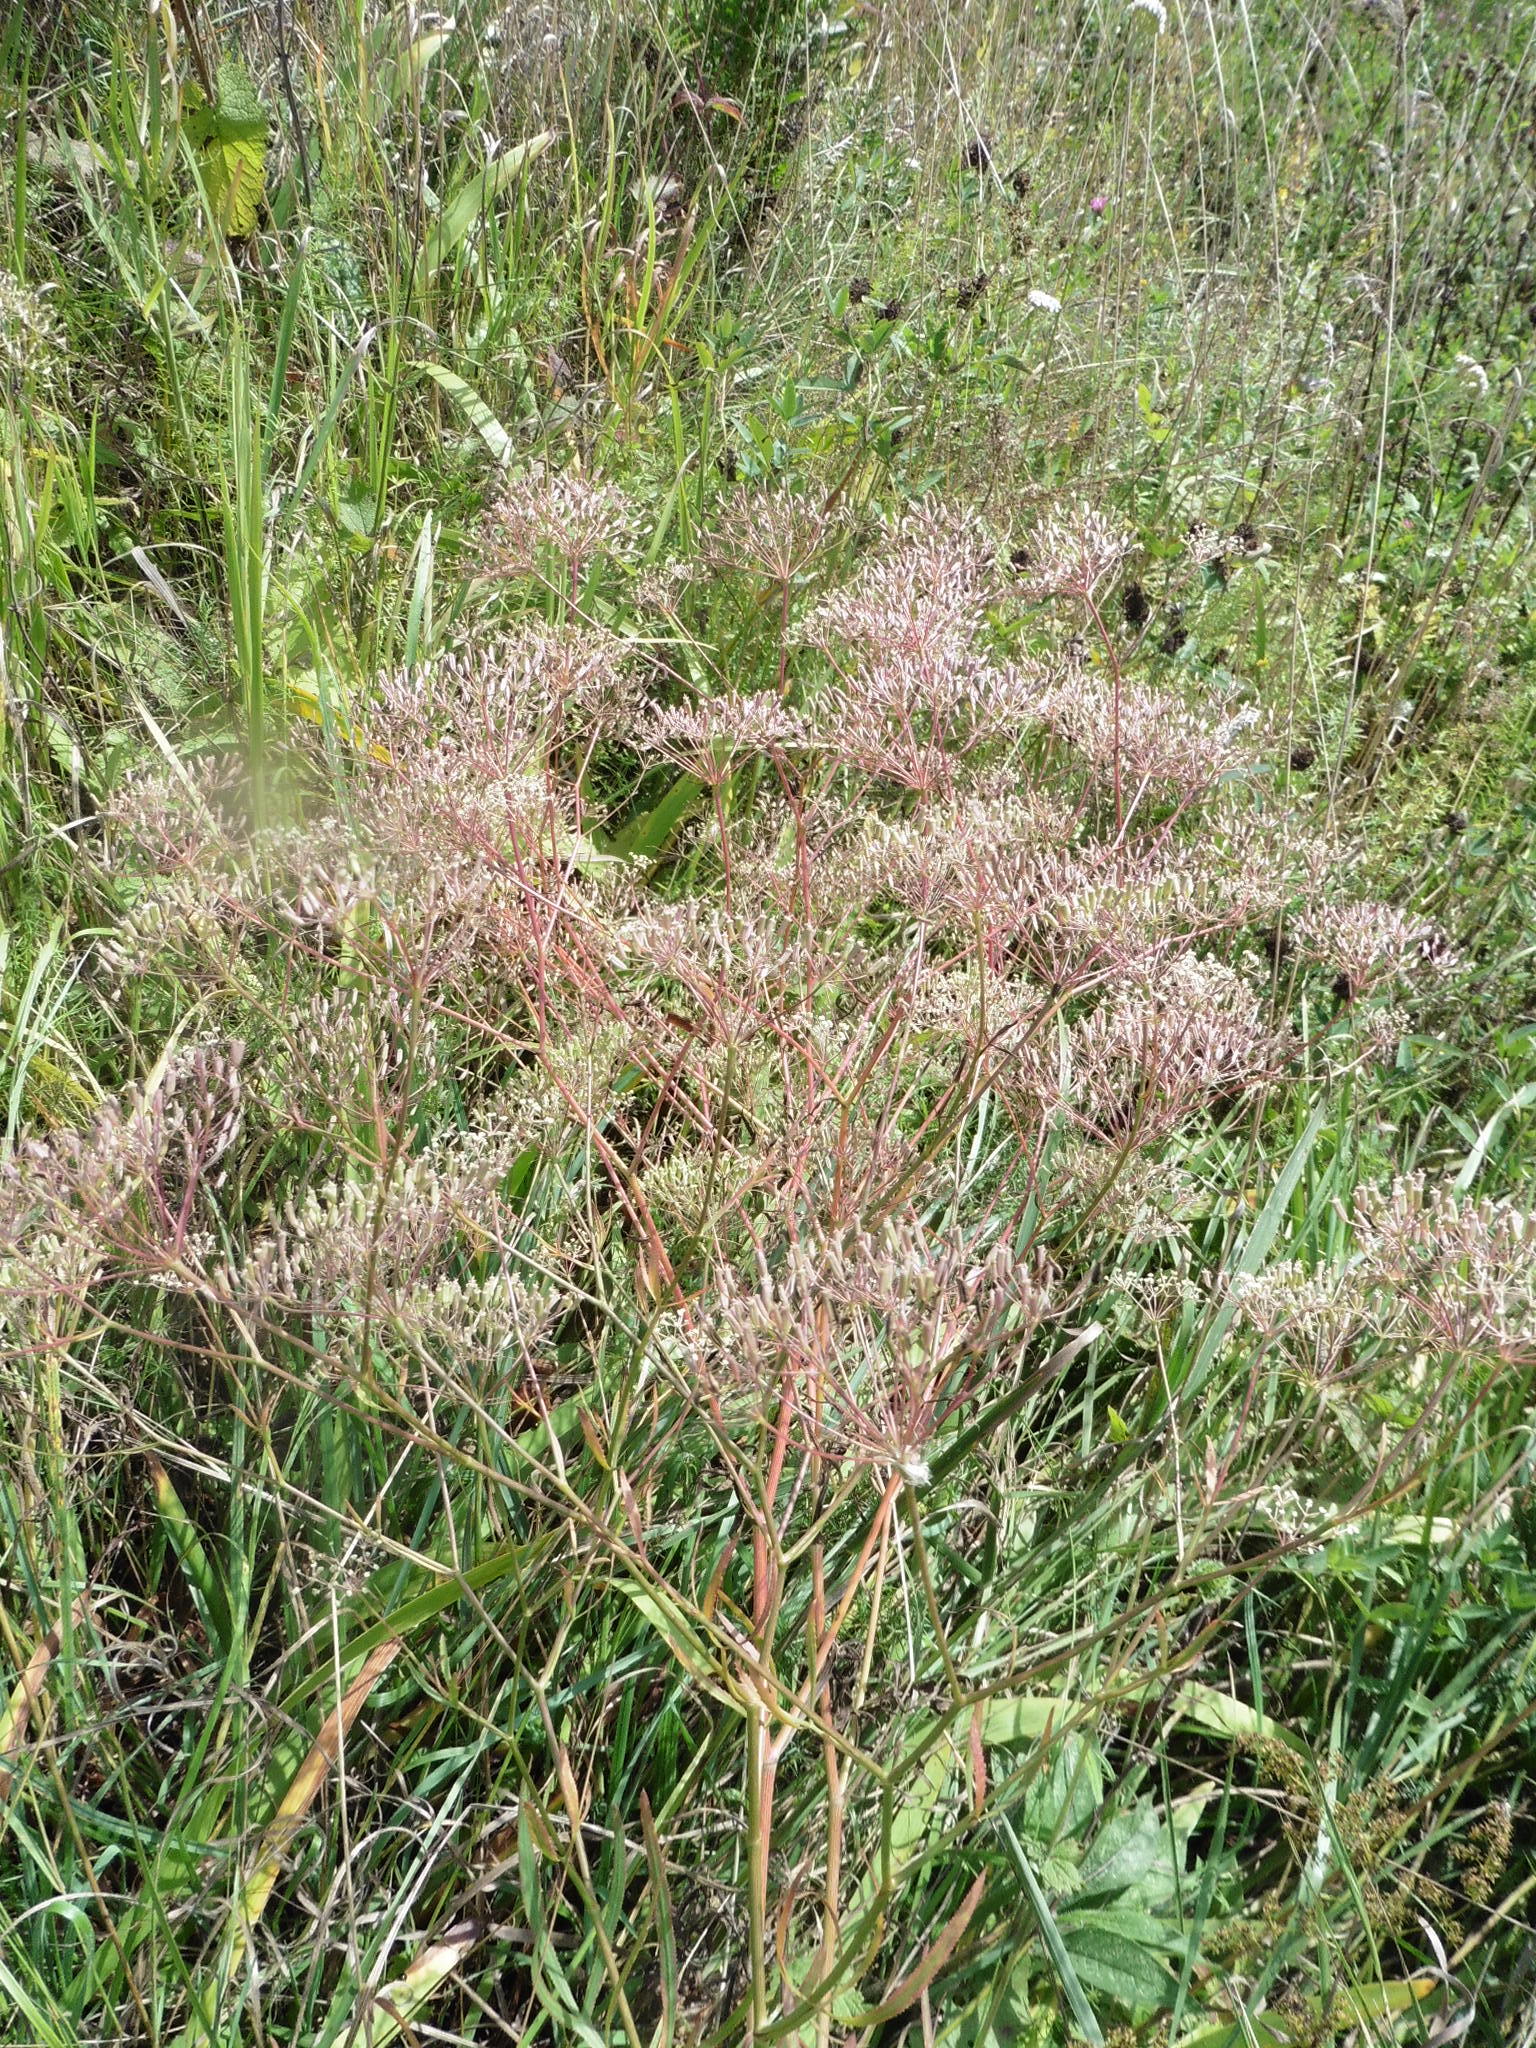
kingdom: Plantae
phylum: Tracheophyta
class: Magnoliopsida
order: Apiales
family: Apiaceae
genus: Falcaria
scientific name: Falcaria vulgaris
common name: Longleaf
